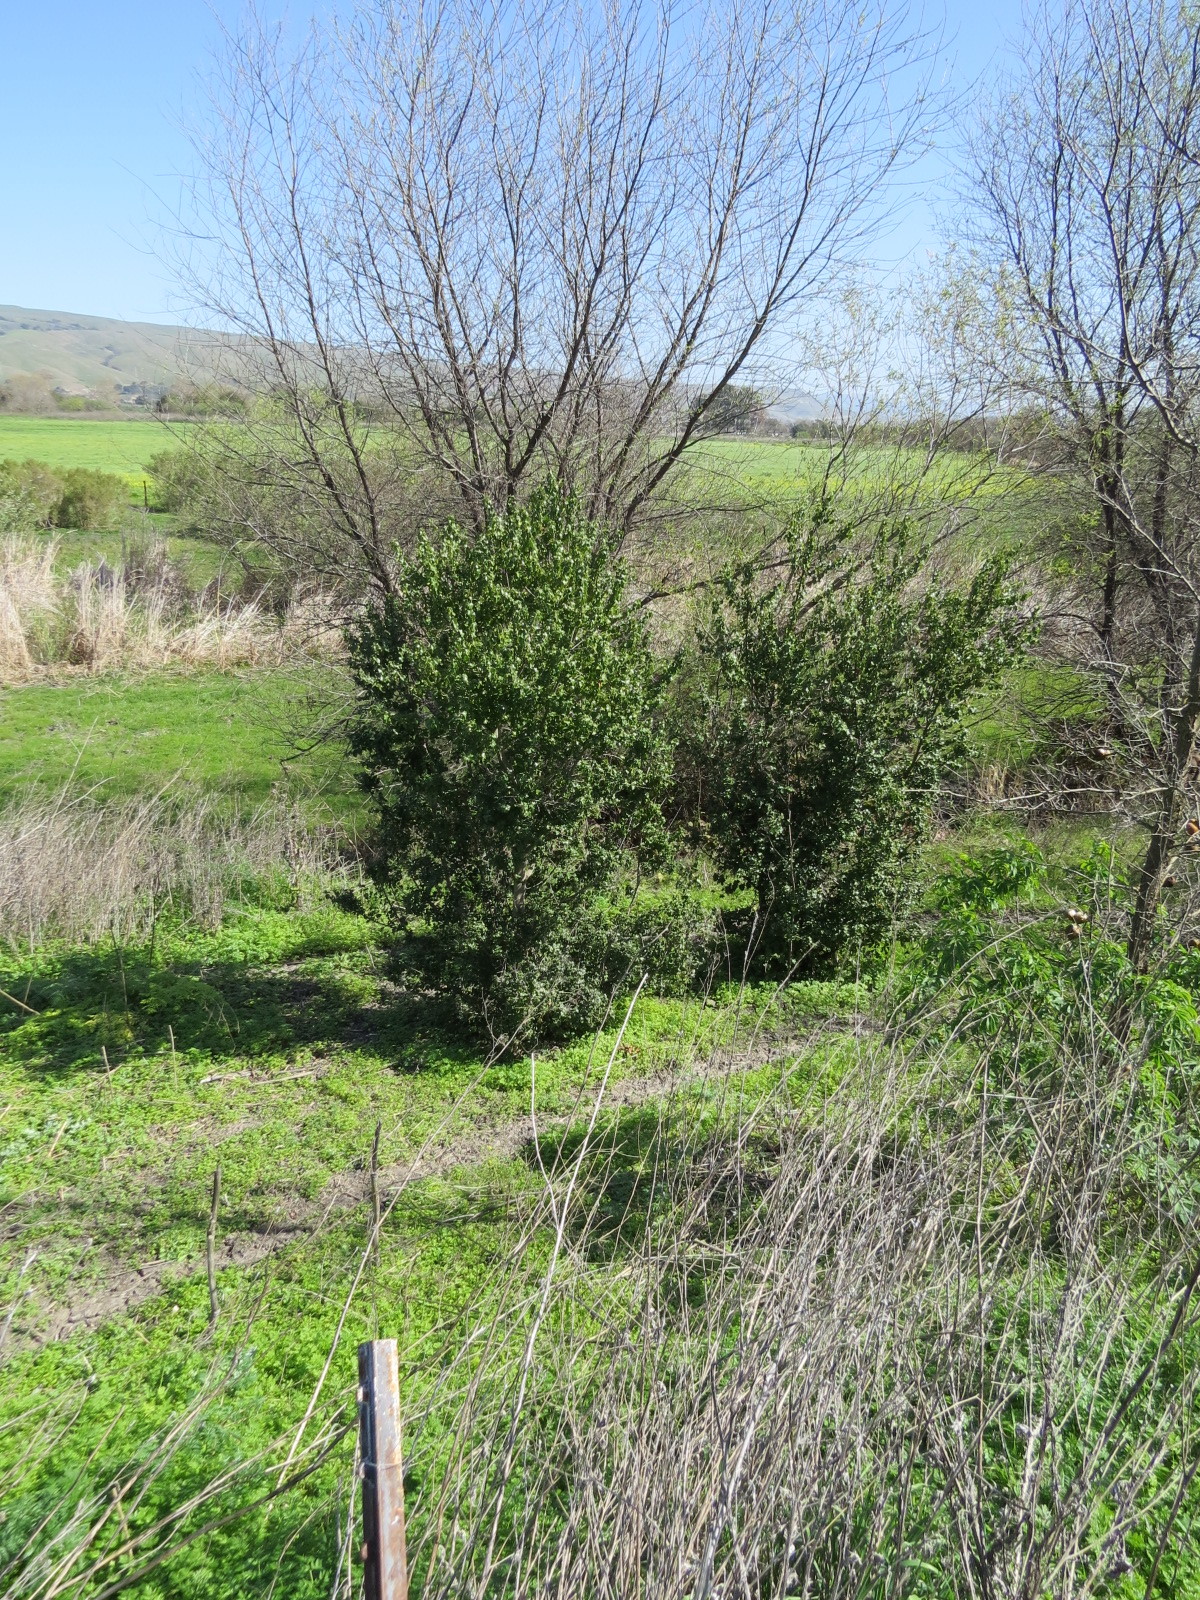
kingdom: Plantae
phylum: Tracheophyta
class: Magnoliopsida
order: Rosales
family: Rosaceae
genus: Prunus
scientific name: Prunus ilicifolia
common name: Hollyleaf cherry
